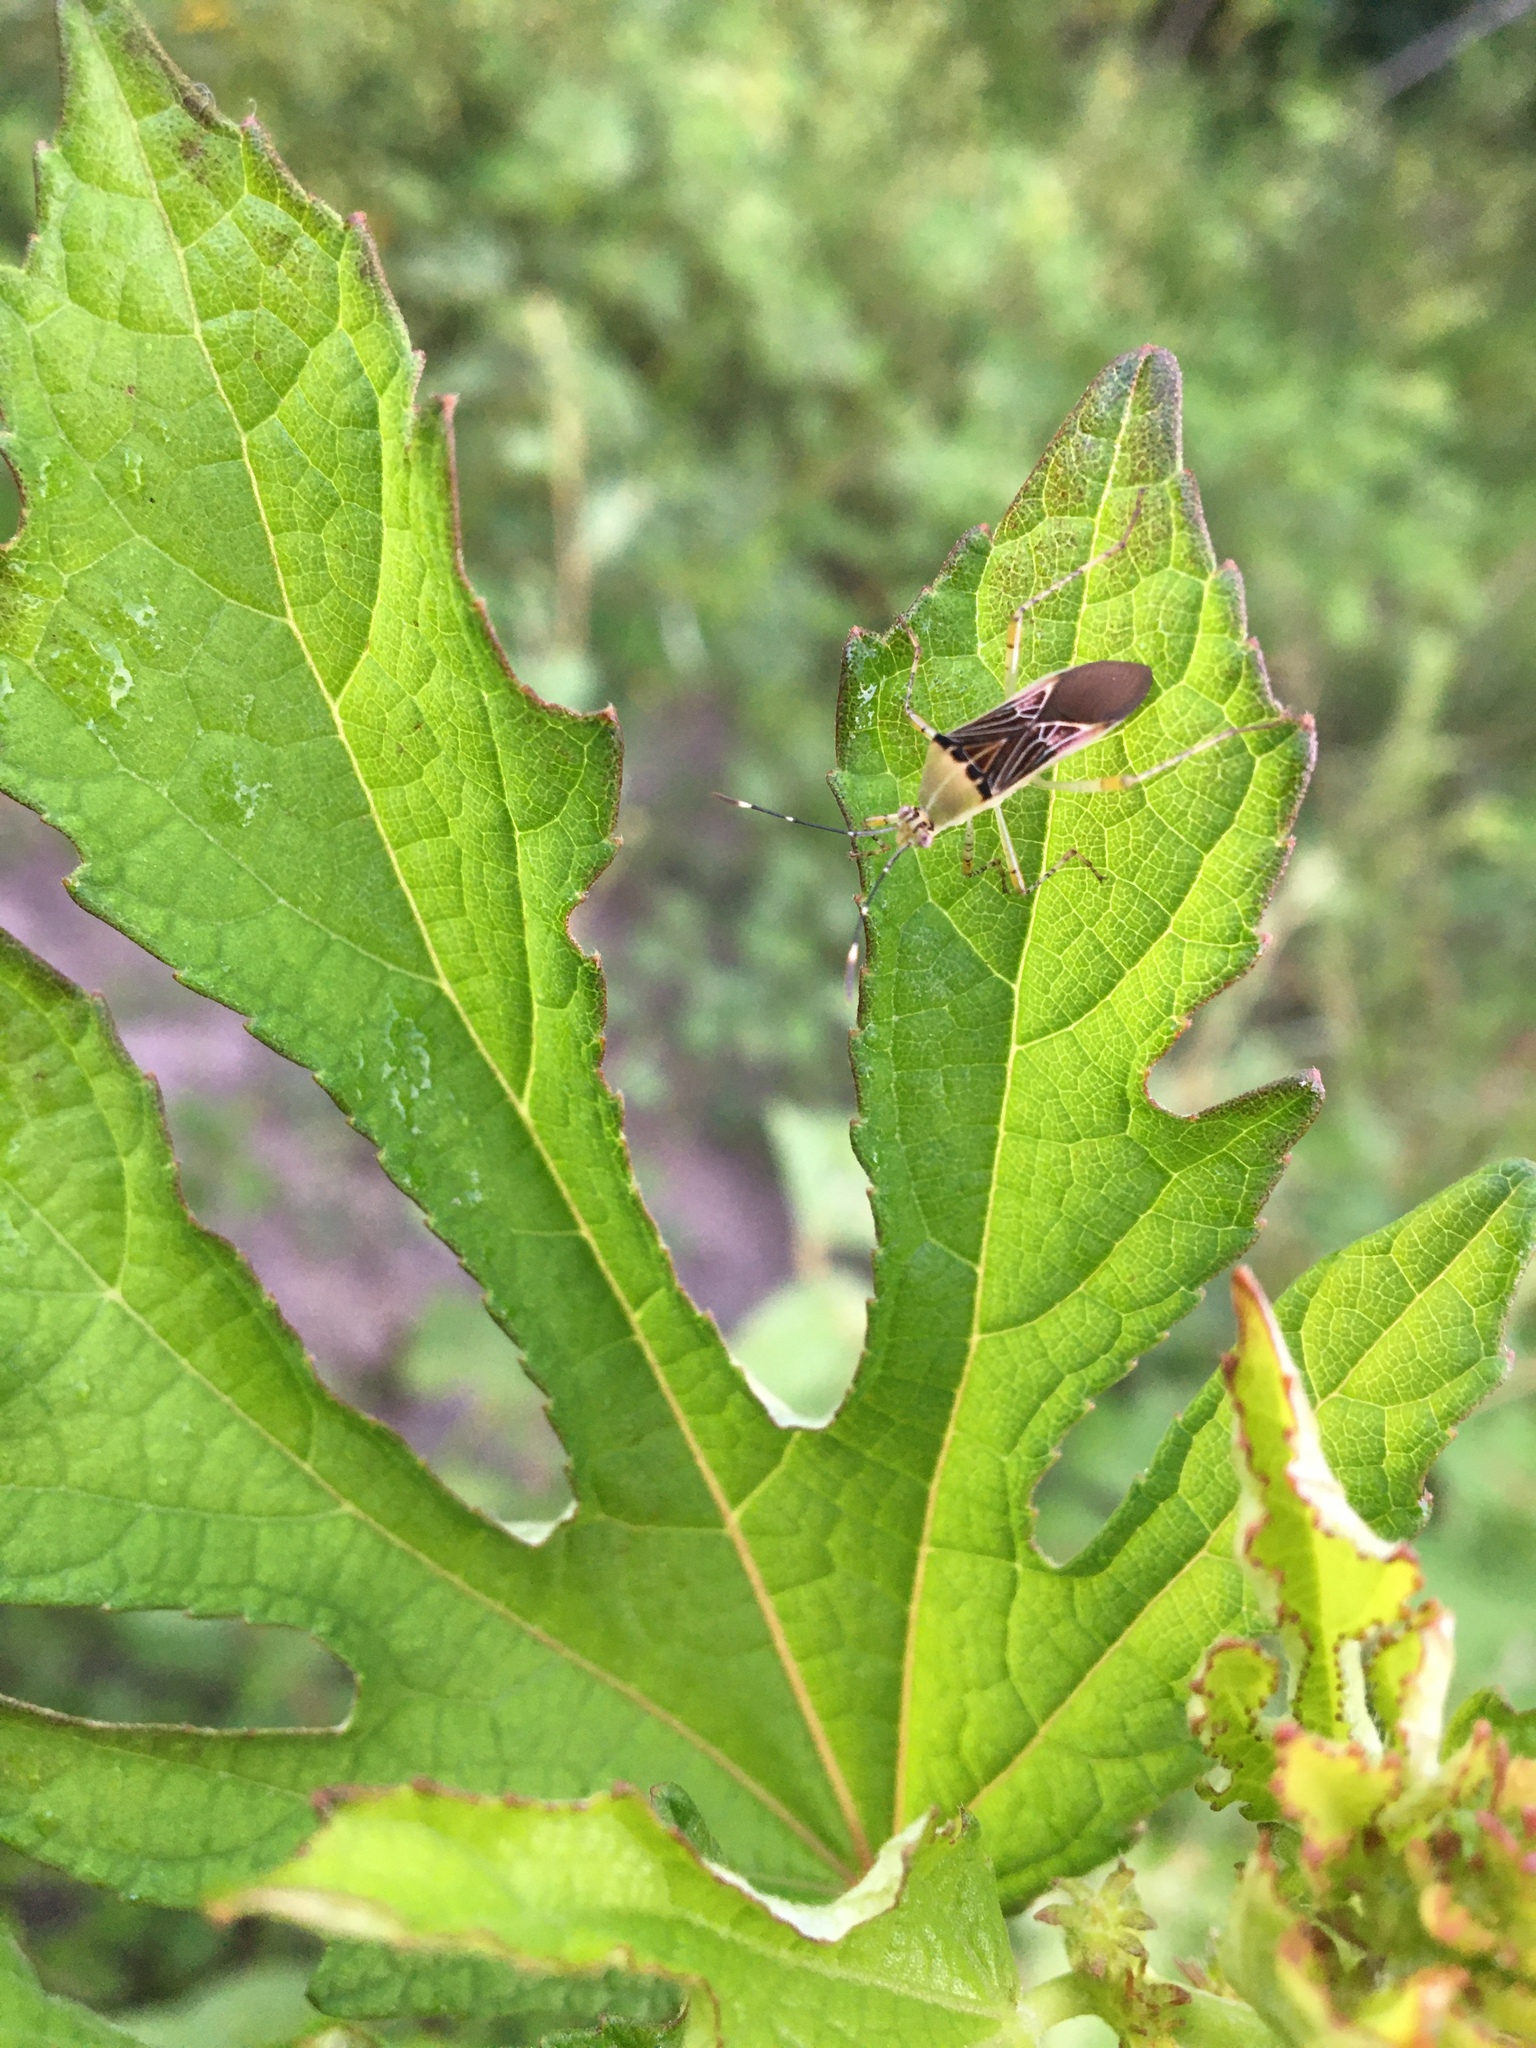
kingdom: Animalia
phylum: Arthropoda
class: Insecta
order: Hemiptera
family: Coreidae
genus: Hypselonotus
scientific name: Hypselonotus fulvus
